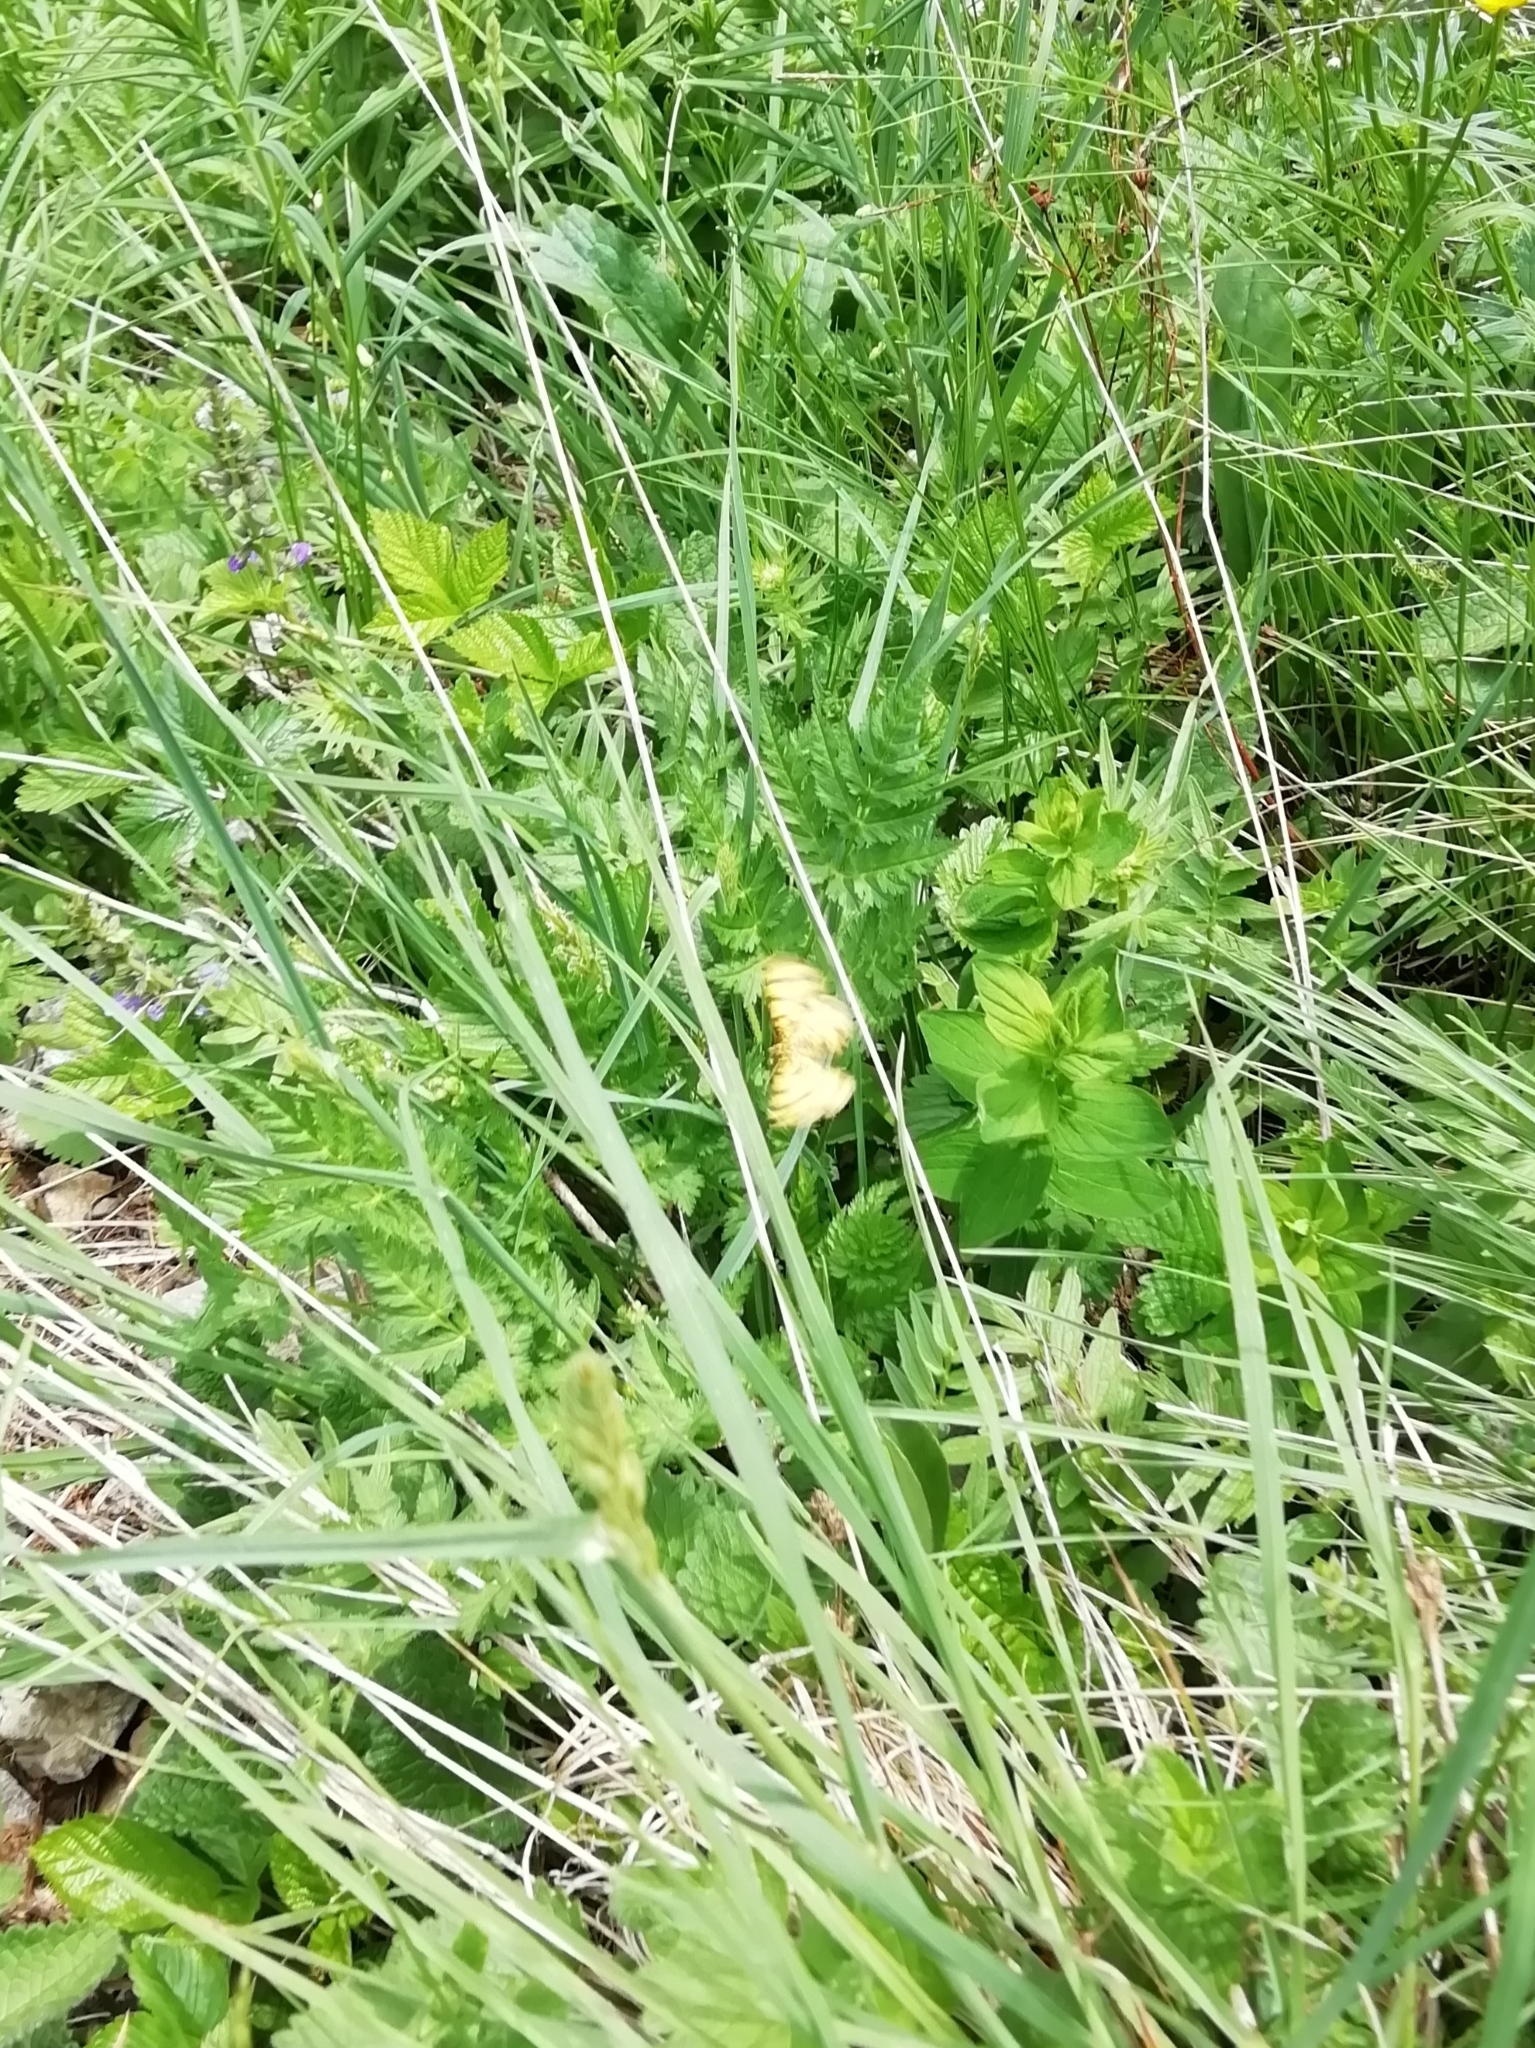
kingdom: Animalia
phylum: Arthropoda
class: Insecta
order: Lepidoptera
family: Geometridae
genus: Pseudopanthera
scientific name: Pseudopanthera macularia
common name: Speckled yellow
